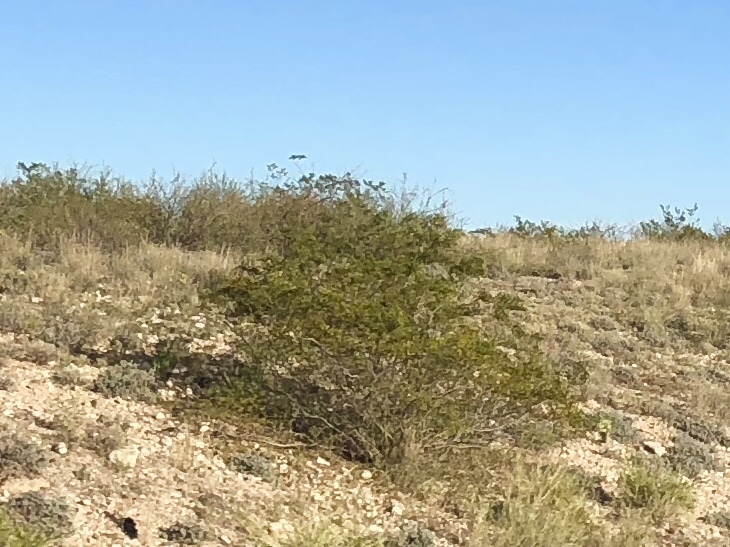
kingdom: Plantae
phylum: Tracheophyta
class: Magnoliopsida
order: Zygophyllales
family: Zygophyllaceae
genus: Larrea
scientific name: Larrea tridentata
